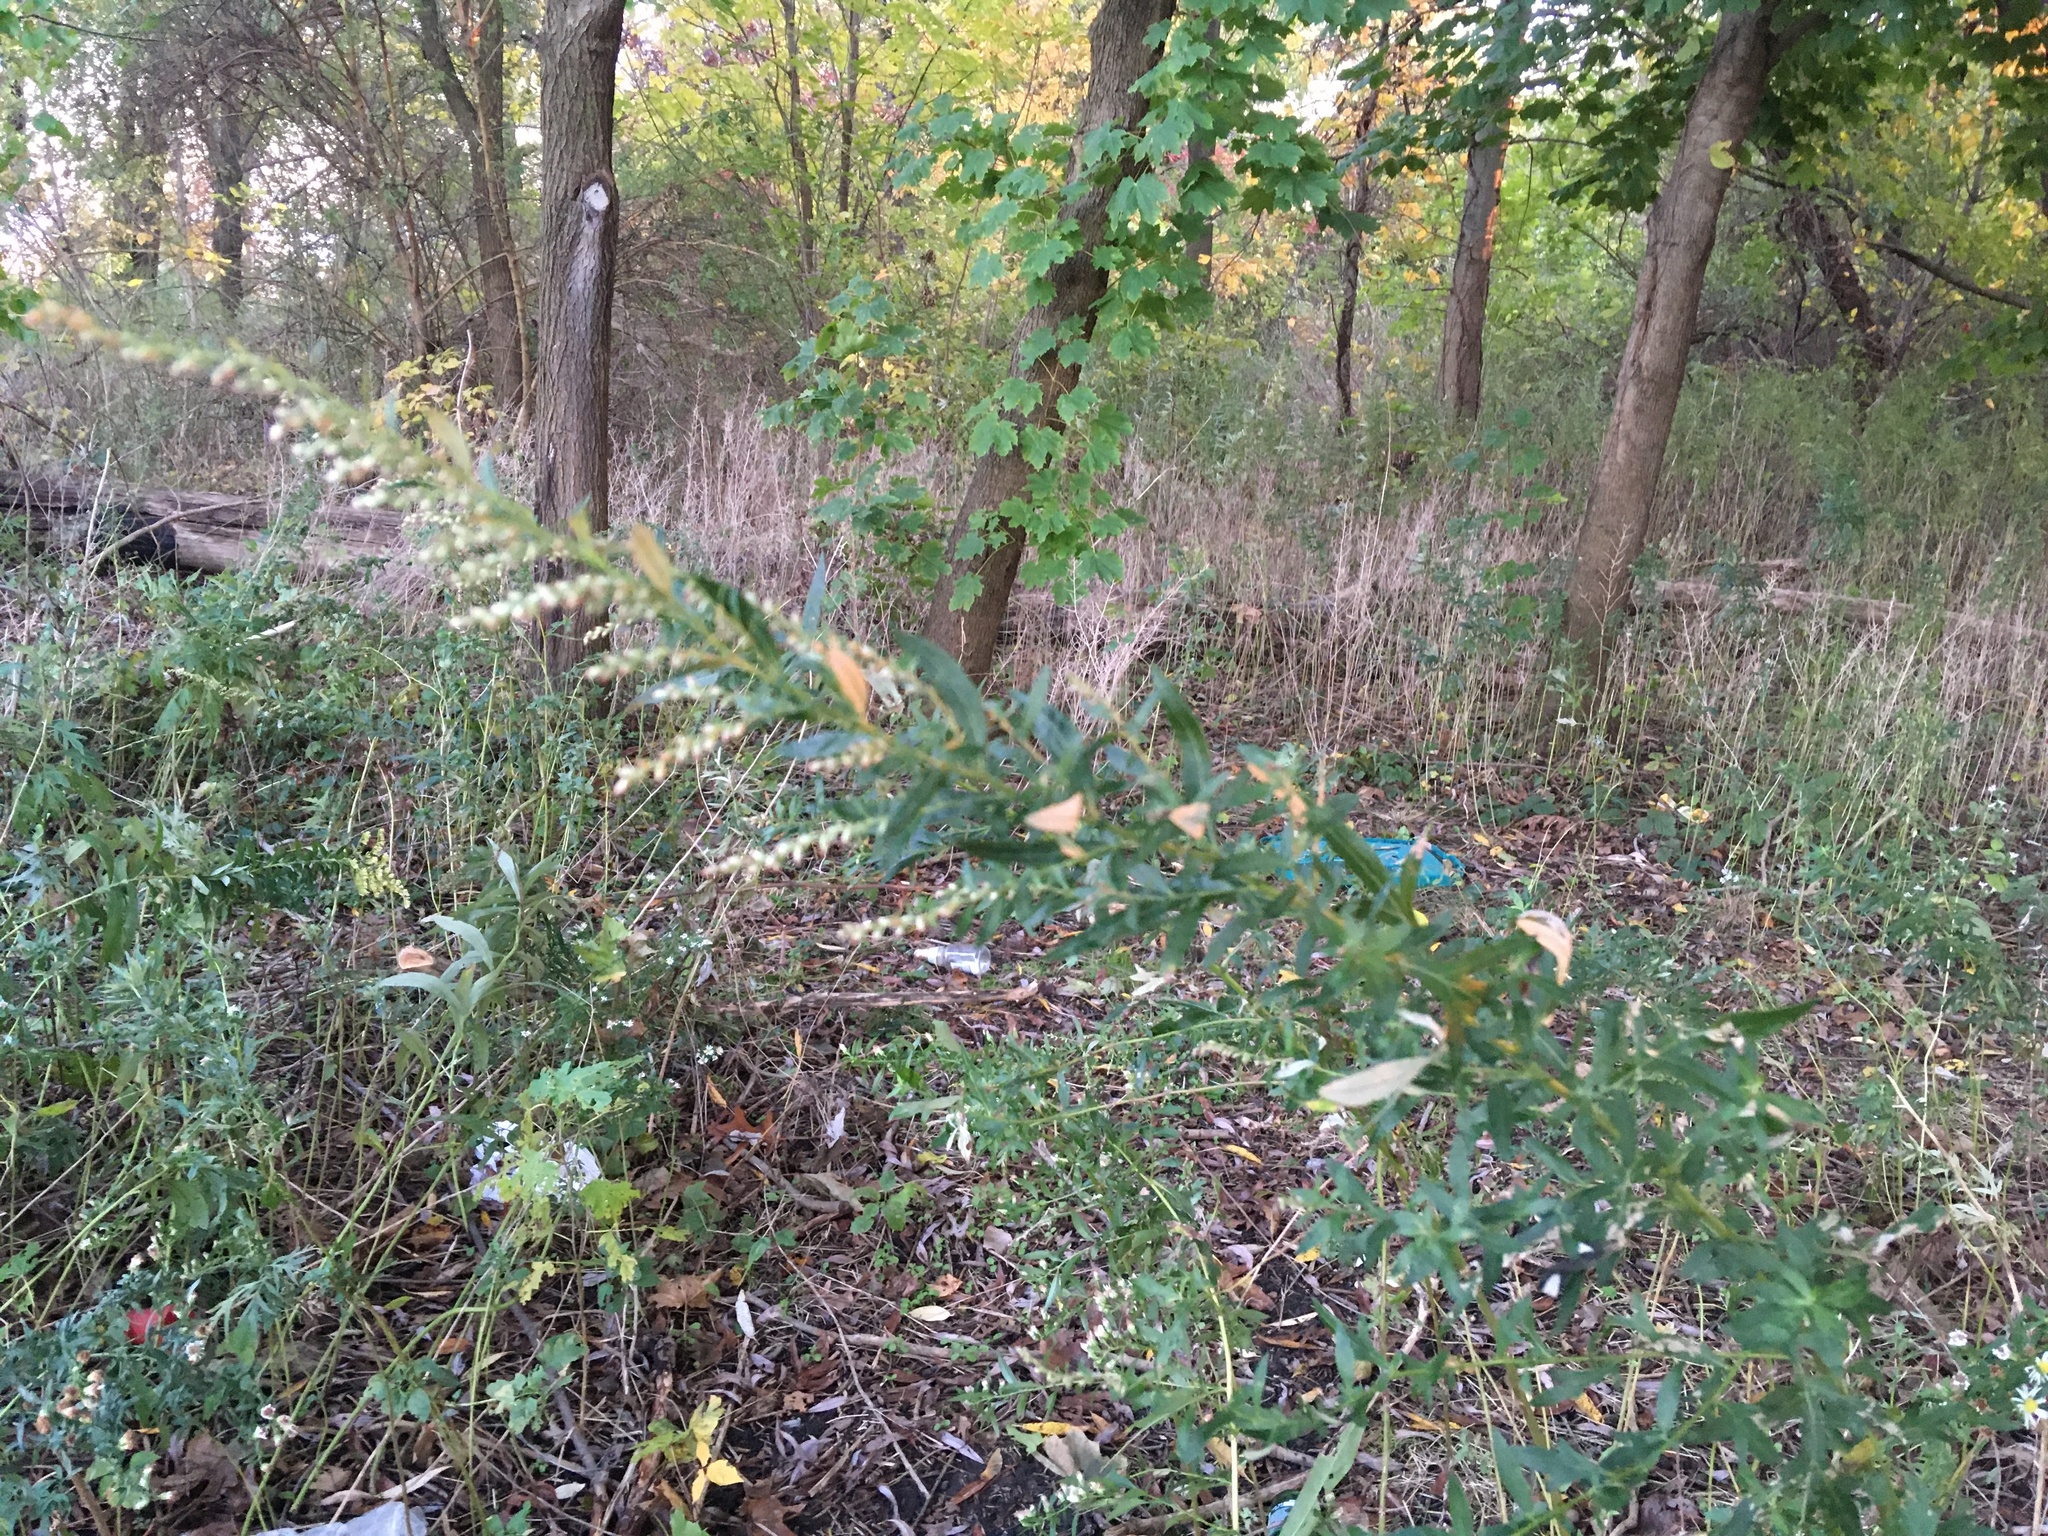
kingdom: Plantae
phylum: Tracheophyta
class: Magnoliopsida
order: Asterales
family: Asteraceae
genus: Artemisia
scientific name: Artemisia vulgaris
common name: Mugwort
